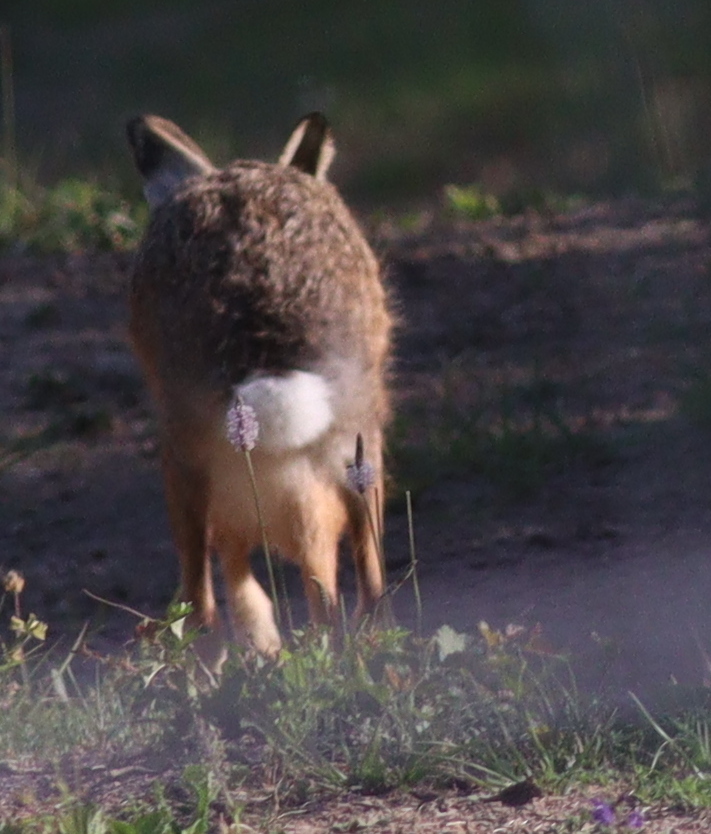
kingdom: Animalia
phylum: Chordata
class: Mammalia
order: Lagomorpha
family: Leporidae
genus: Lepus
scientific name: Lepus europaeus
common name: European hare
